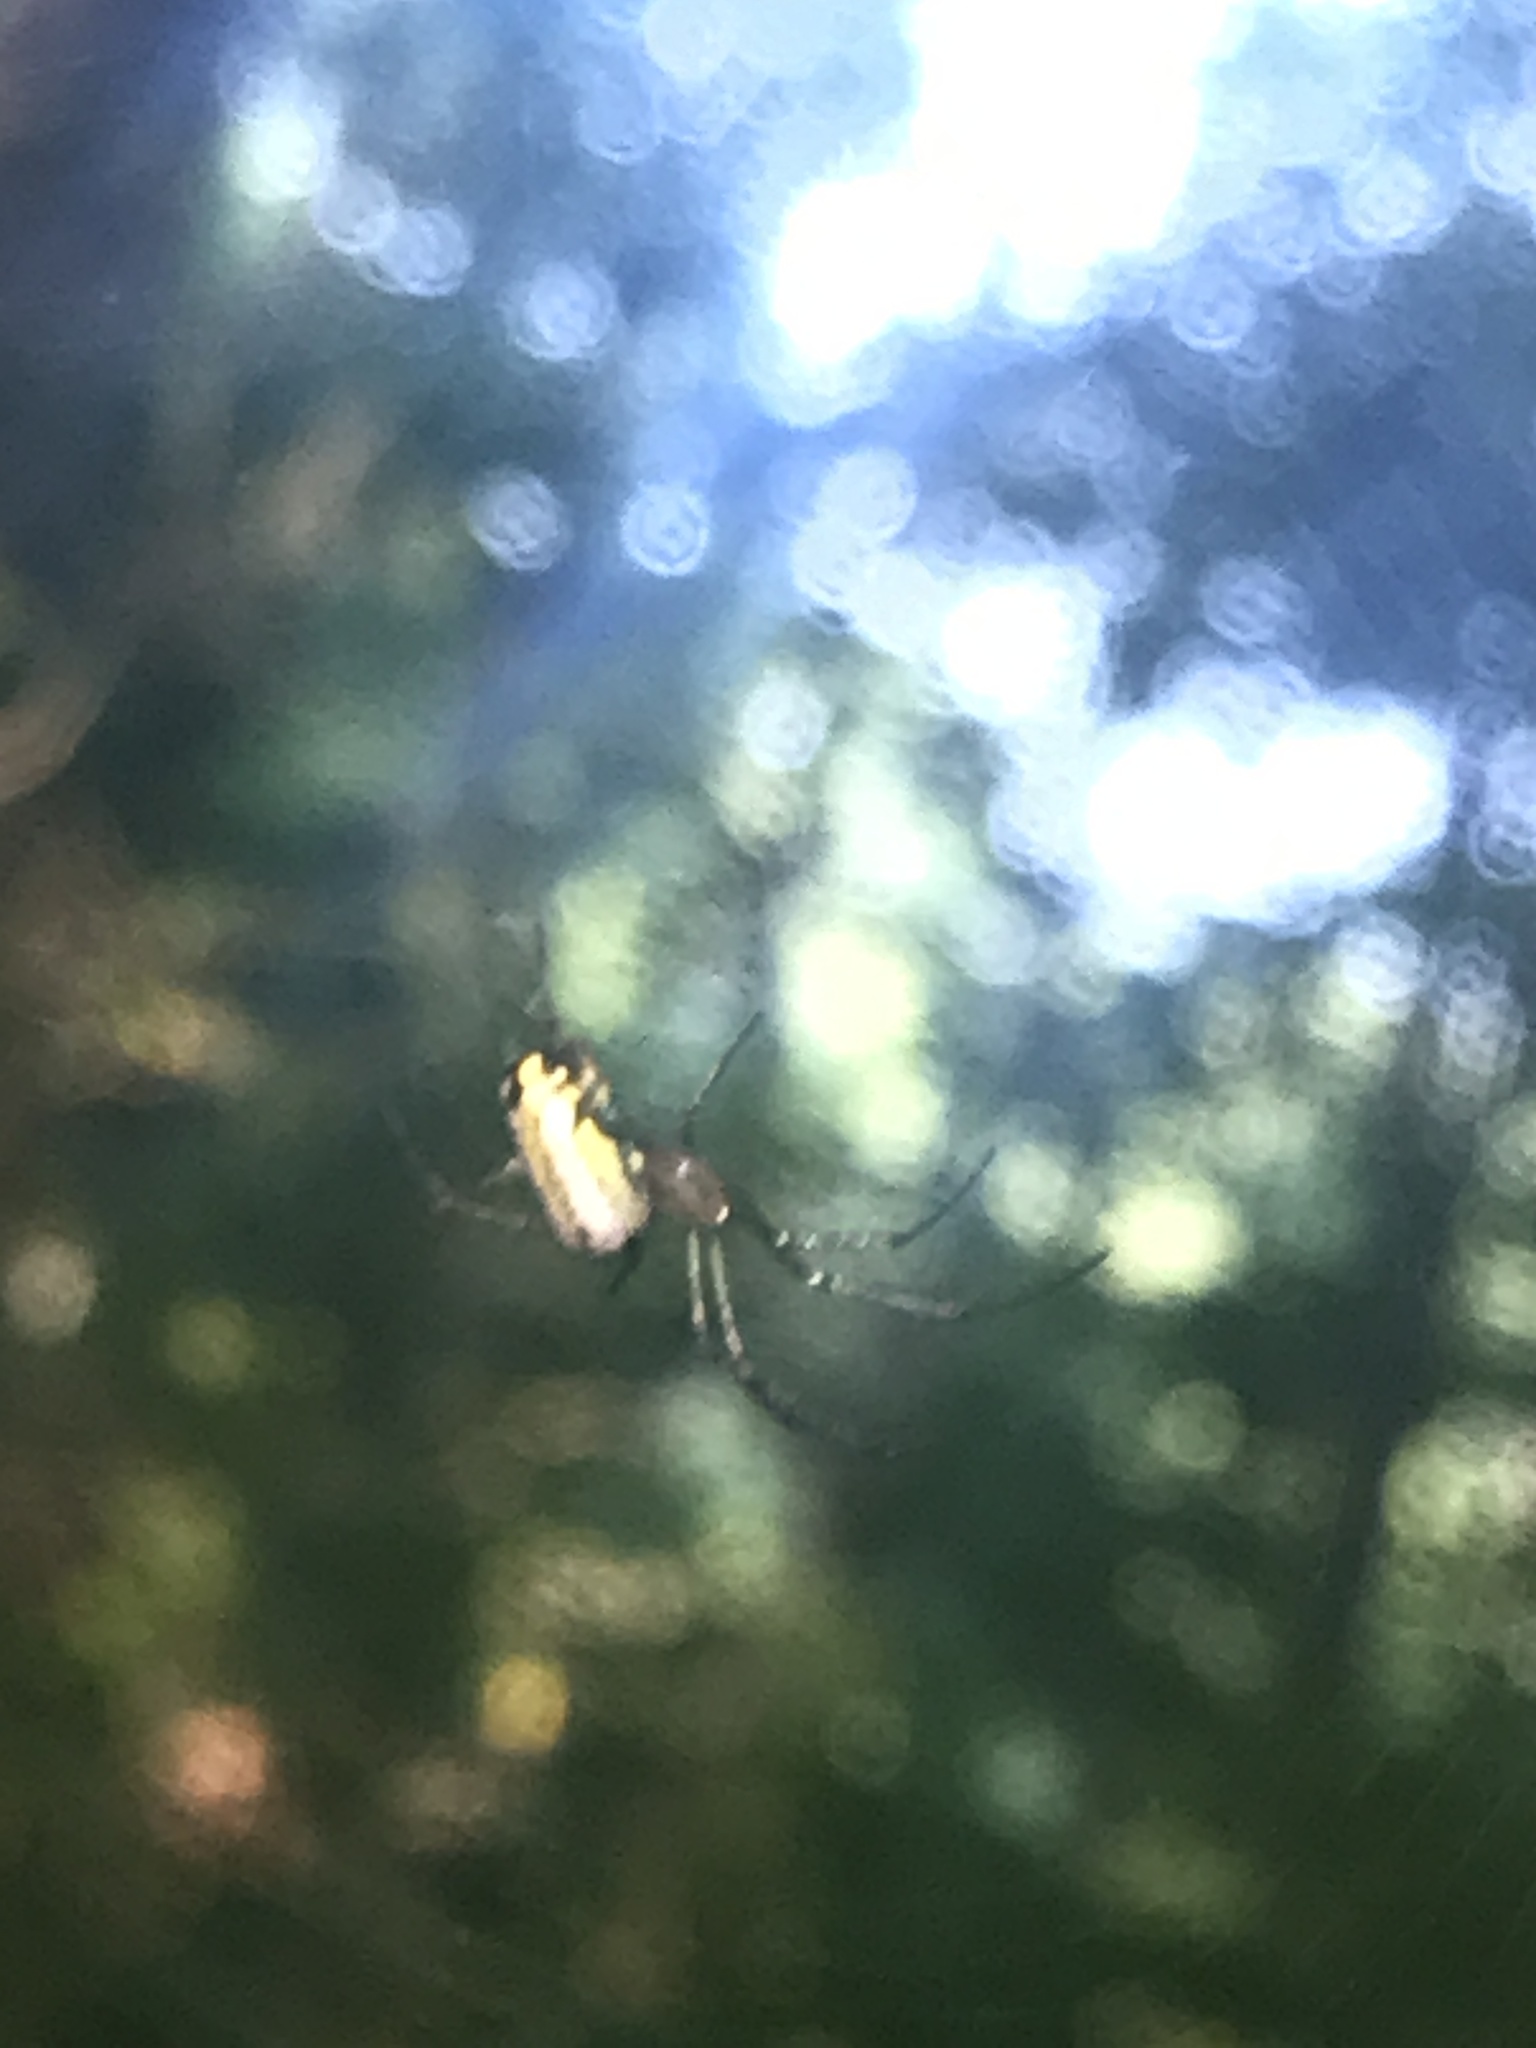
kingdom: Animalia
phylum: Arthropoda
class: Arachnida
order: Araneae
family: Tetragnathidae
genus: Leucauge
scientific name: Leucauge venusta
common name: Longjawed orb weavers
